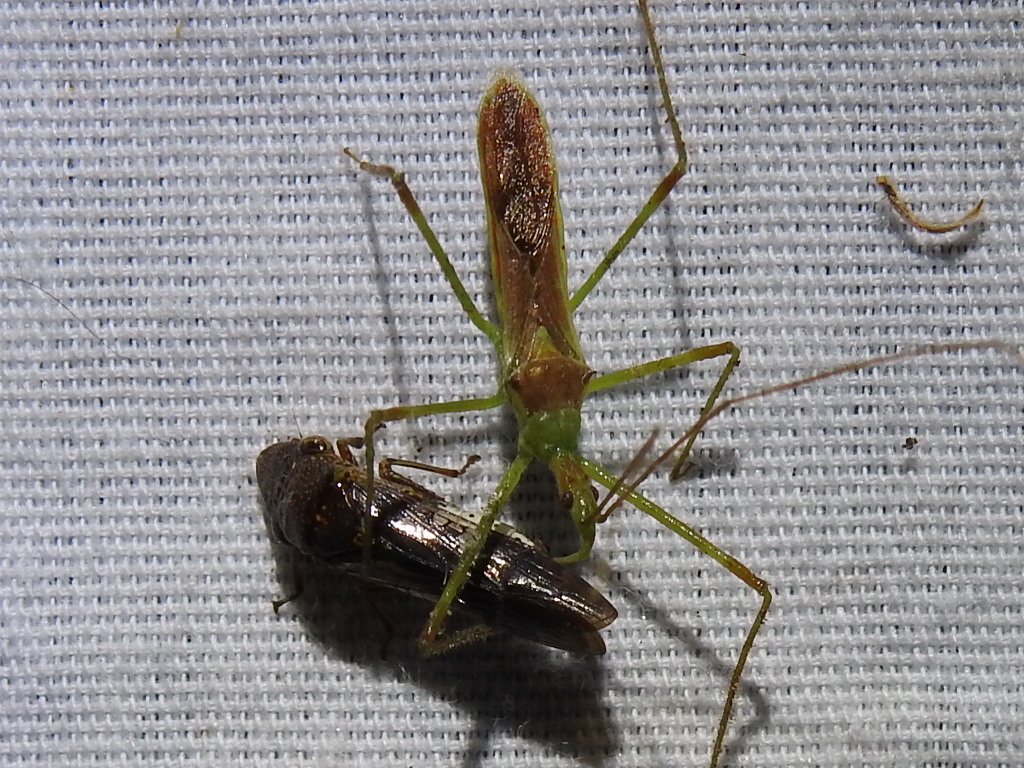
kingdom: Animalia
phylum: Arthropoda
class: Insecta
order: Hemiptera
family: Reduviidae
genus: Zelus
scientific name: Zelus luridus
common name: Pale green assassin bug
